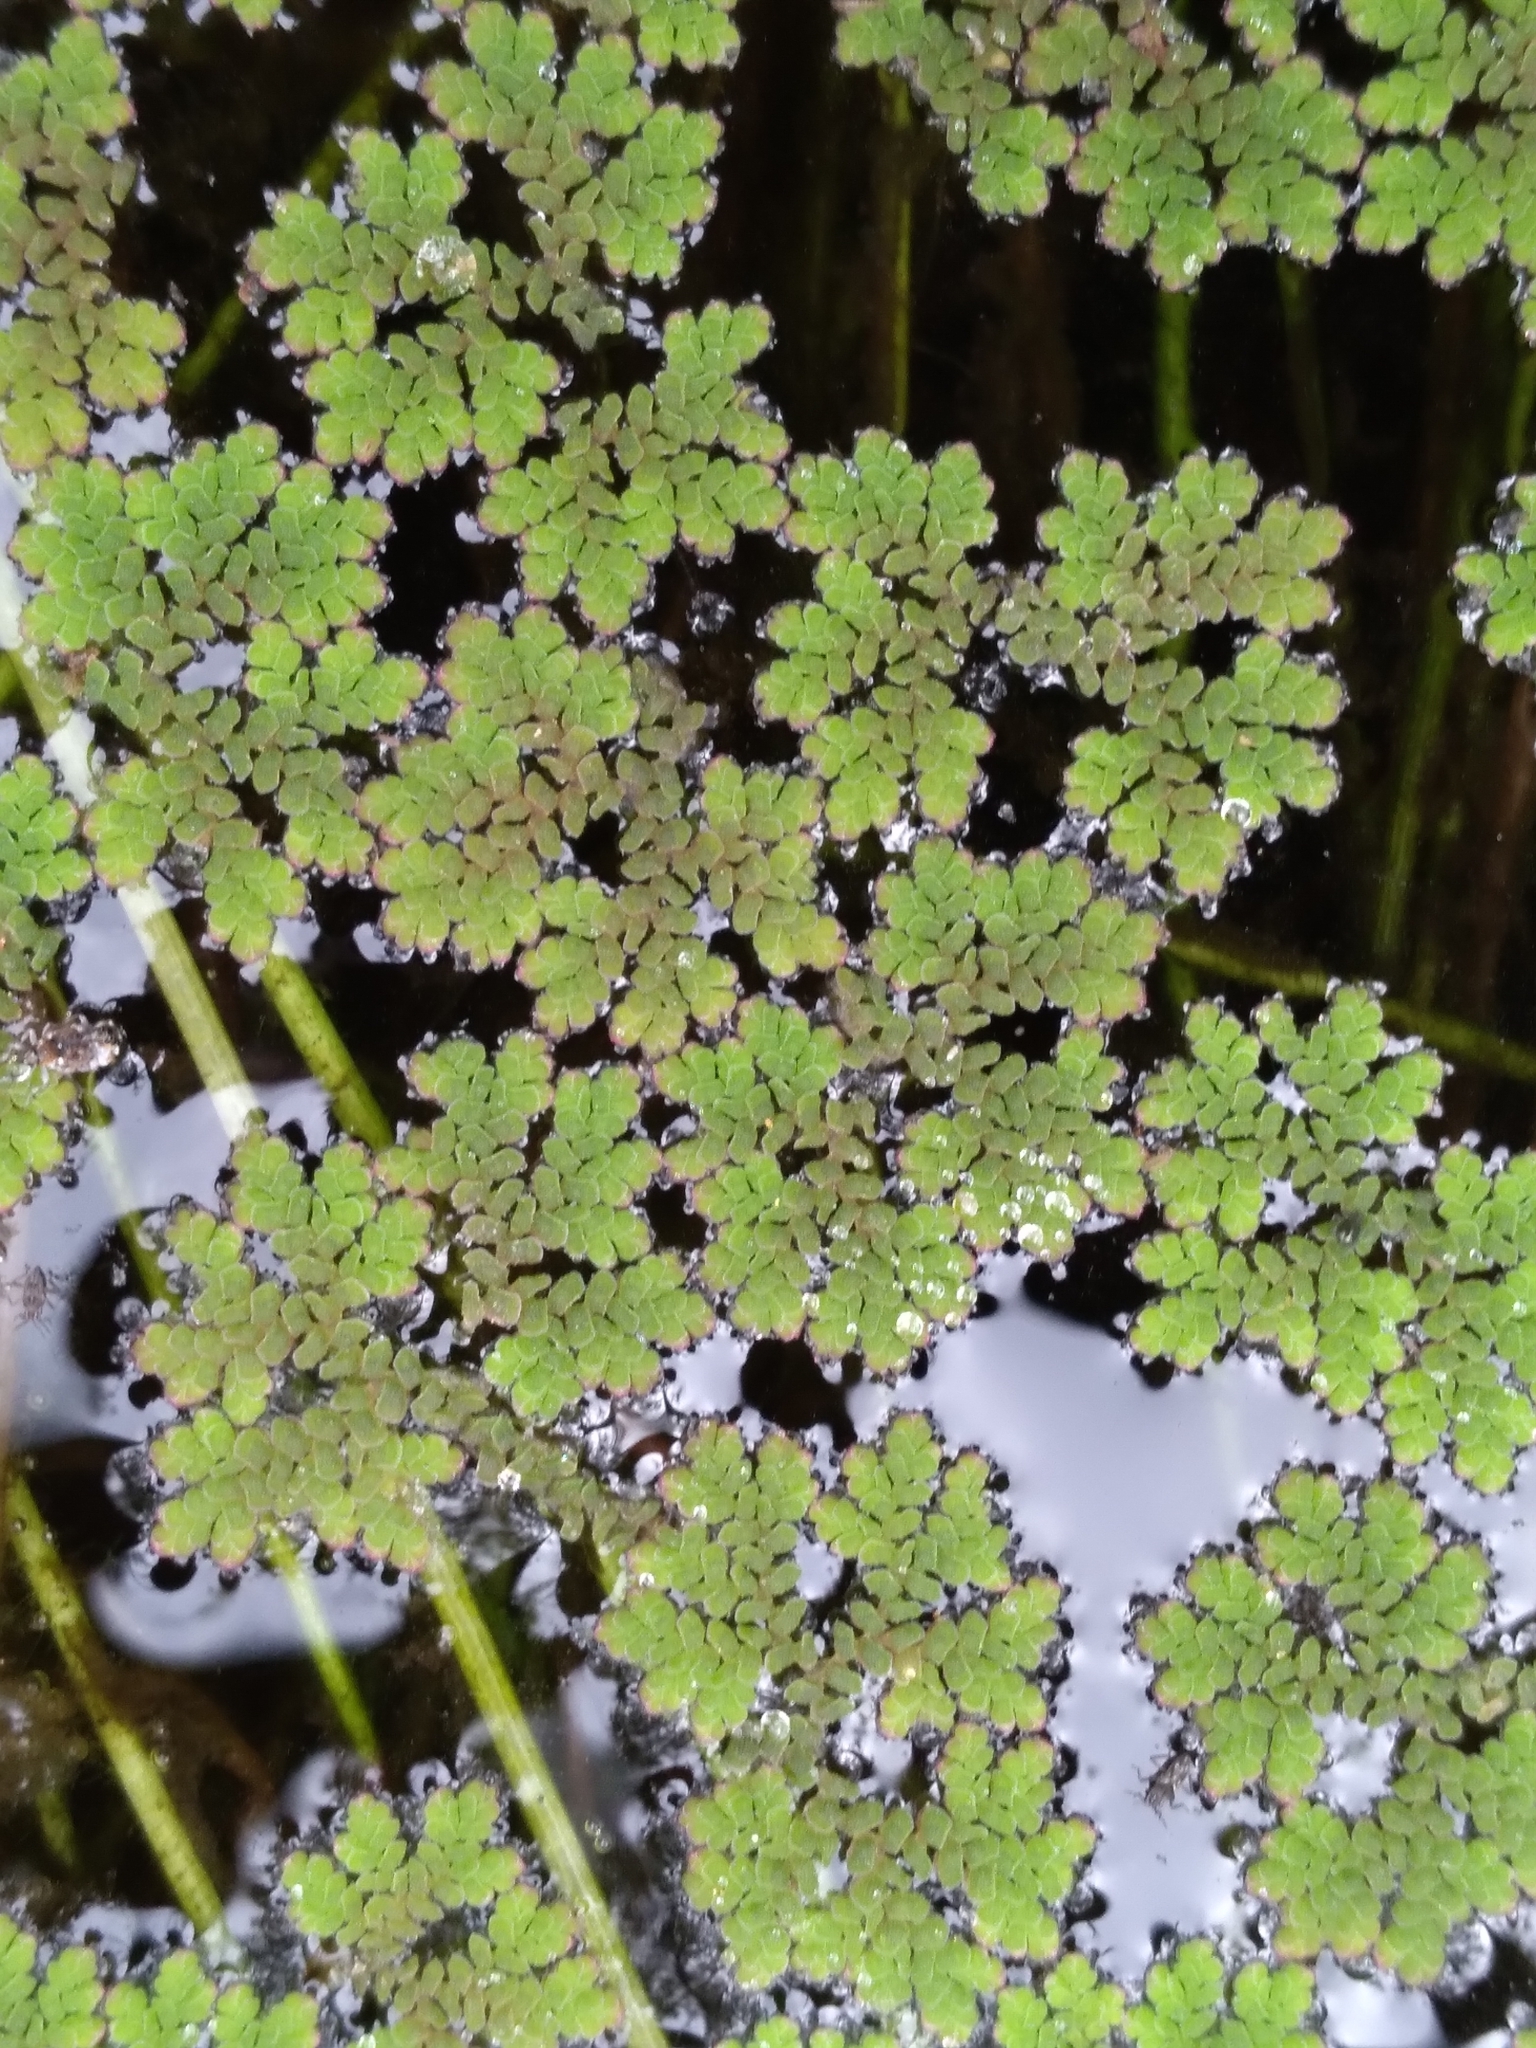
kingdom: Plantae
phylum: Tracheophyta
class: Polypodiopsida
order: Salviniales
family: Salviniaceae
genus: Azolla
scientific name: Azolla caroliniana
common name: Carolina mosquitofern
